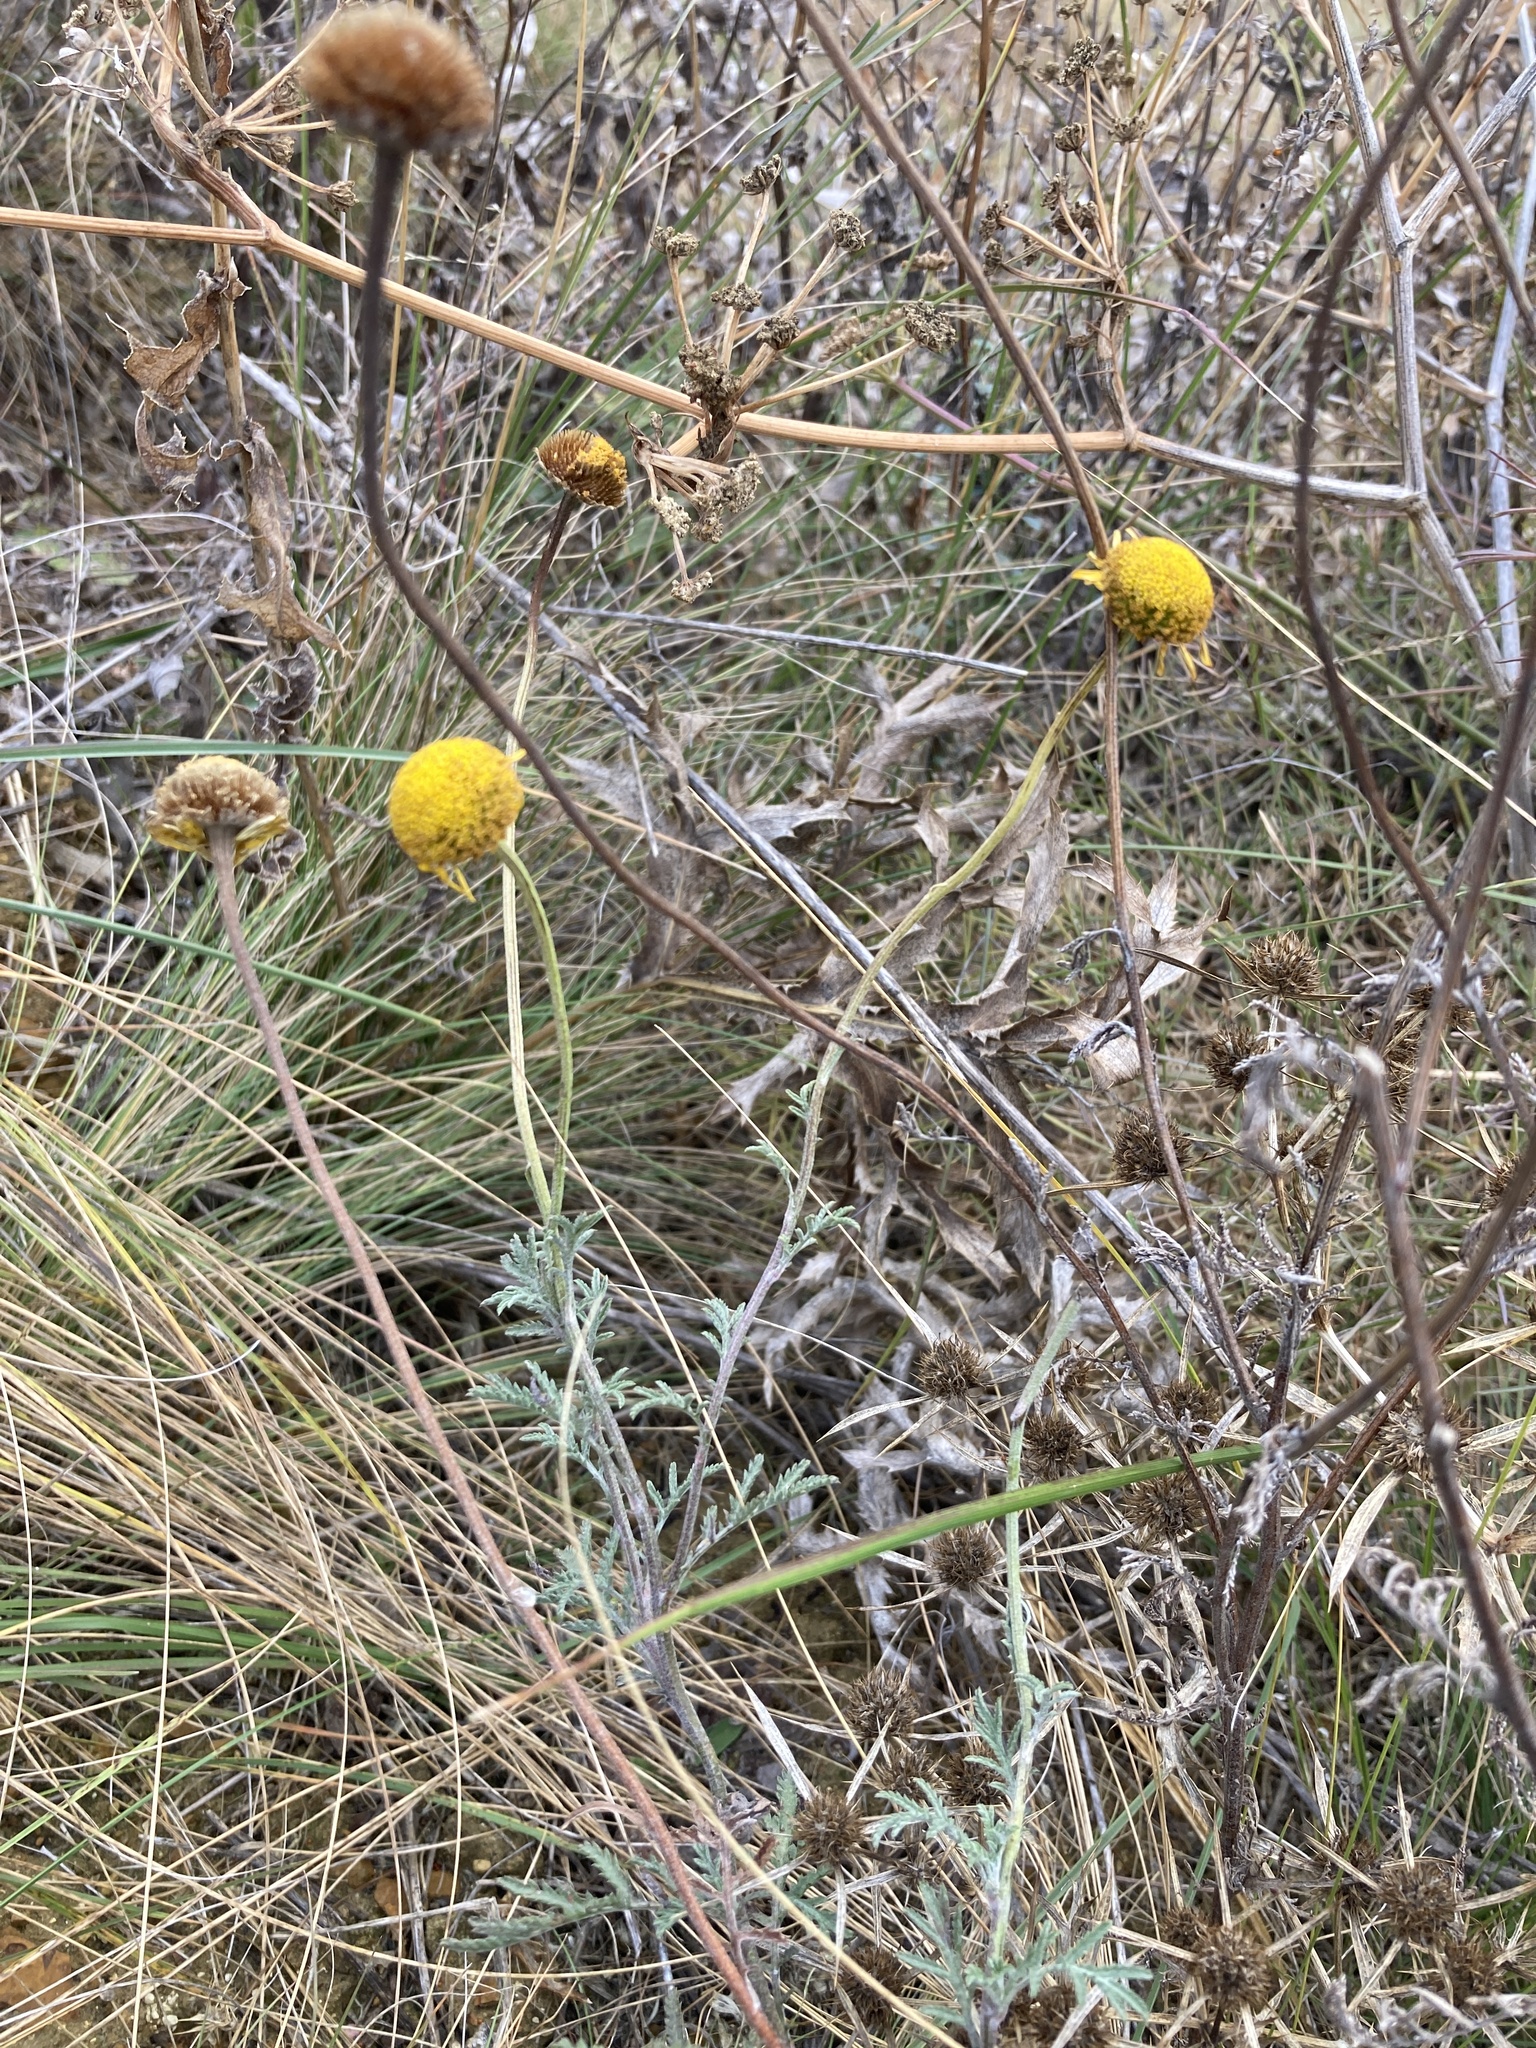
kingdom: Plantae
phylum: Tracheophyta
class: Magnoliopsida
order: Asterales
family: Asteraceae
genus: Cota
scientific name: Cota tinctoria
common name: Golden chamomile
